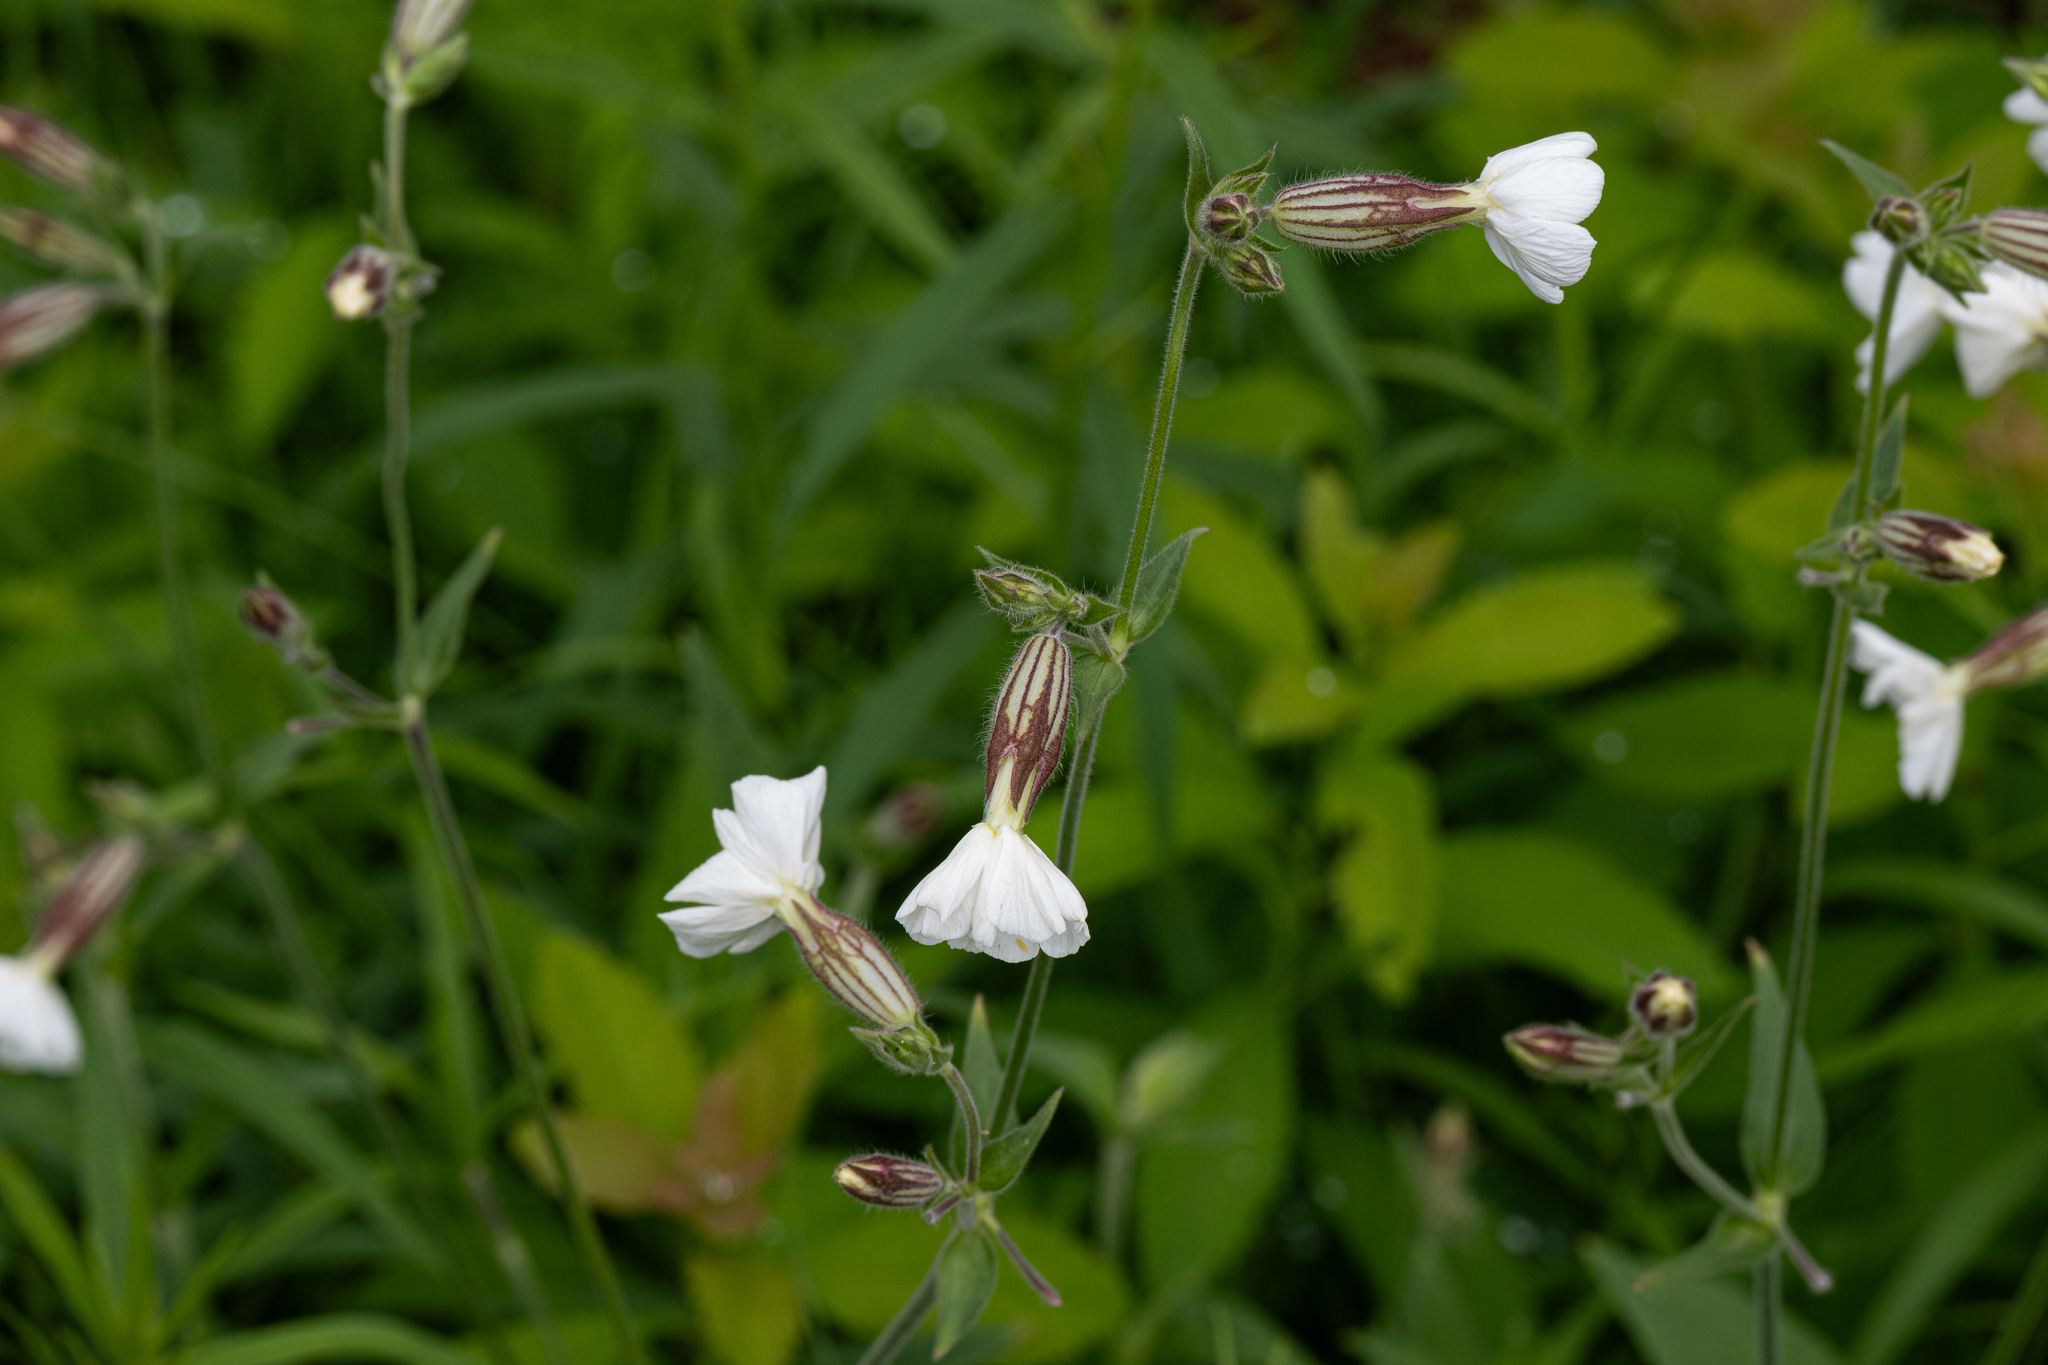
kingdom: Plantae
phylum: Tracheophyta
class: Magnoliopsida
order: Caryophyllales
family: Caryophyllaceae
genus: Silene
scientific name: Silene latifolia
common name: White campion
